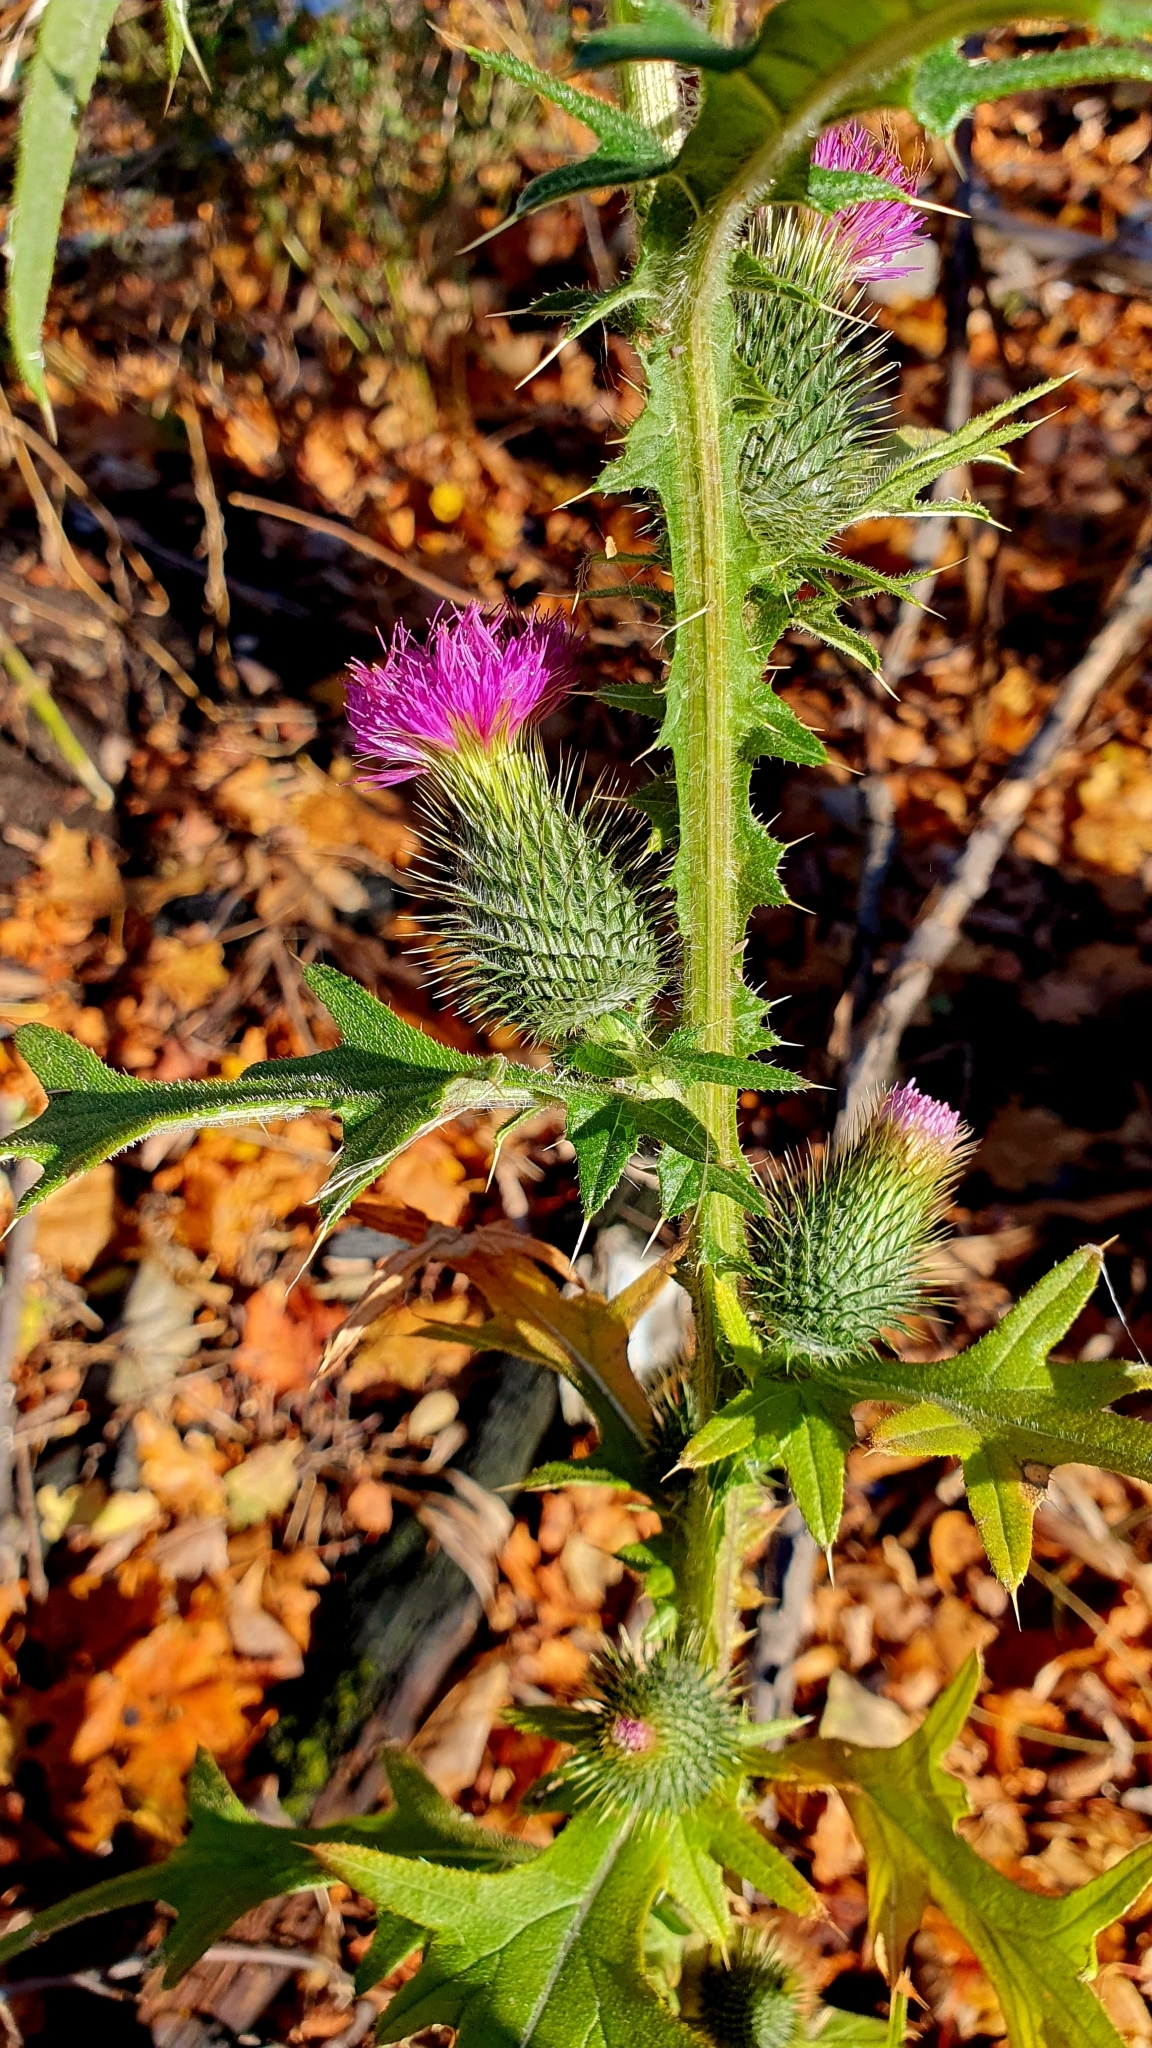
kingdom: Plantae
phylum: Tracheophyta
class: Magnoliopsida
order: Asterales
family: Asteraceae
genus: Cirsium
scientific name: Cirsium vulgare
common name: Bull thistle
